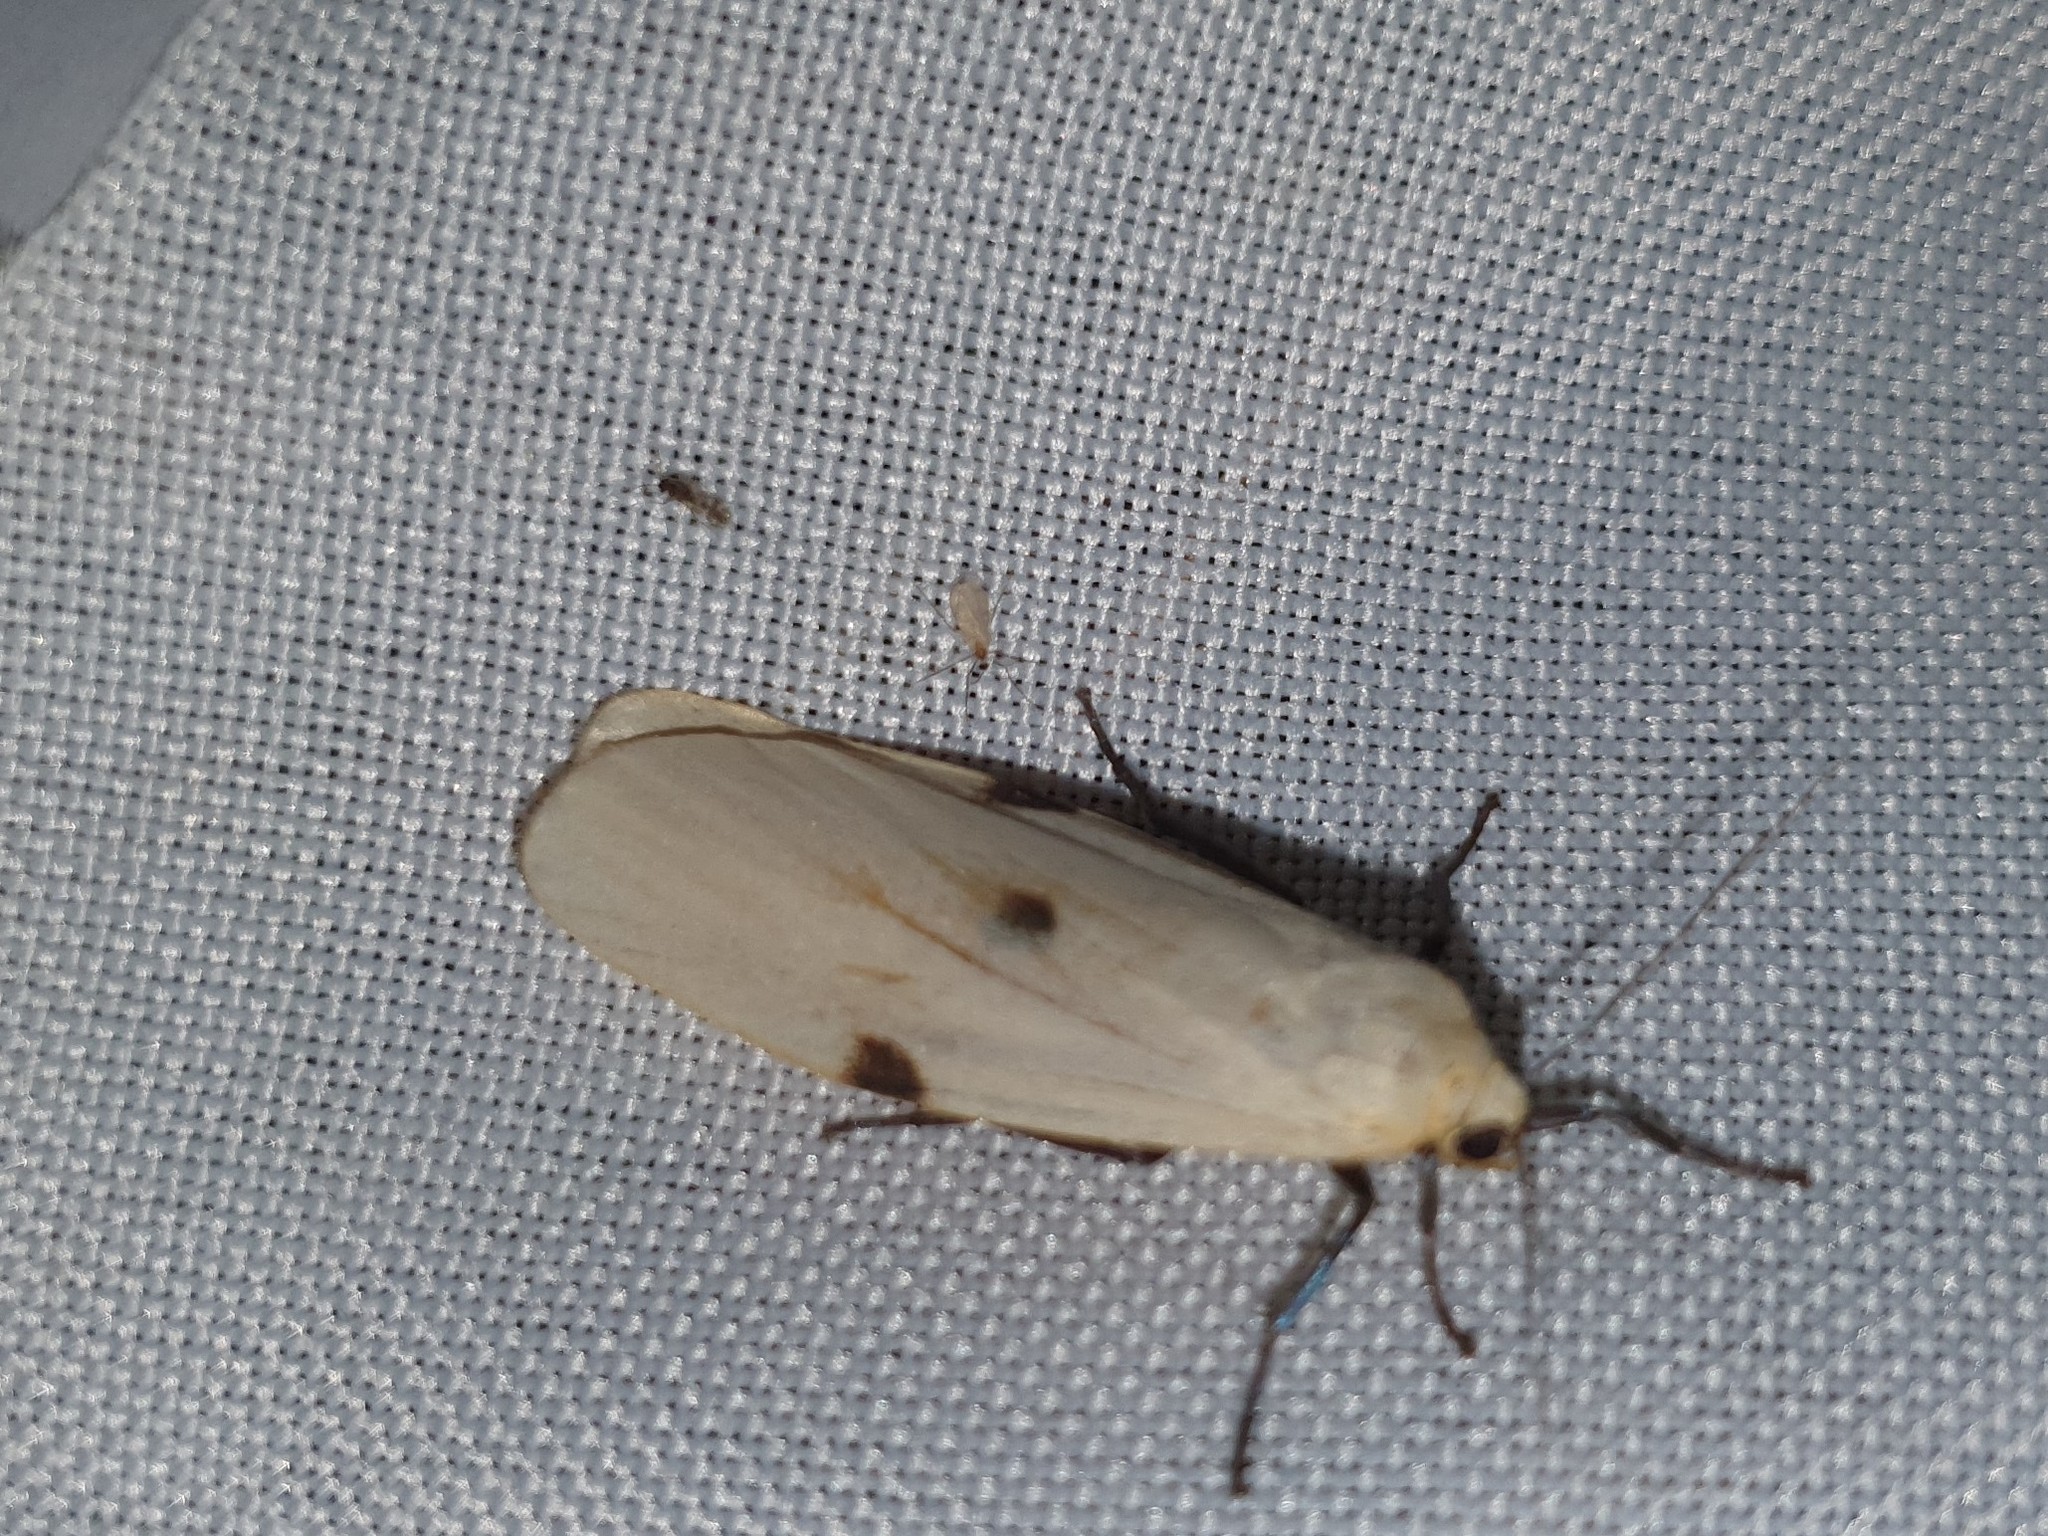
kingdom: Animalia
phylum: Arthropoda
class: Insecta
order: Lepidoptera
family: Erebidae
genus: Lithosia
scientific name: Lithosia quadra
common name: Four-spotted footman
